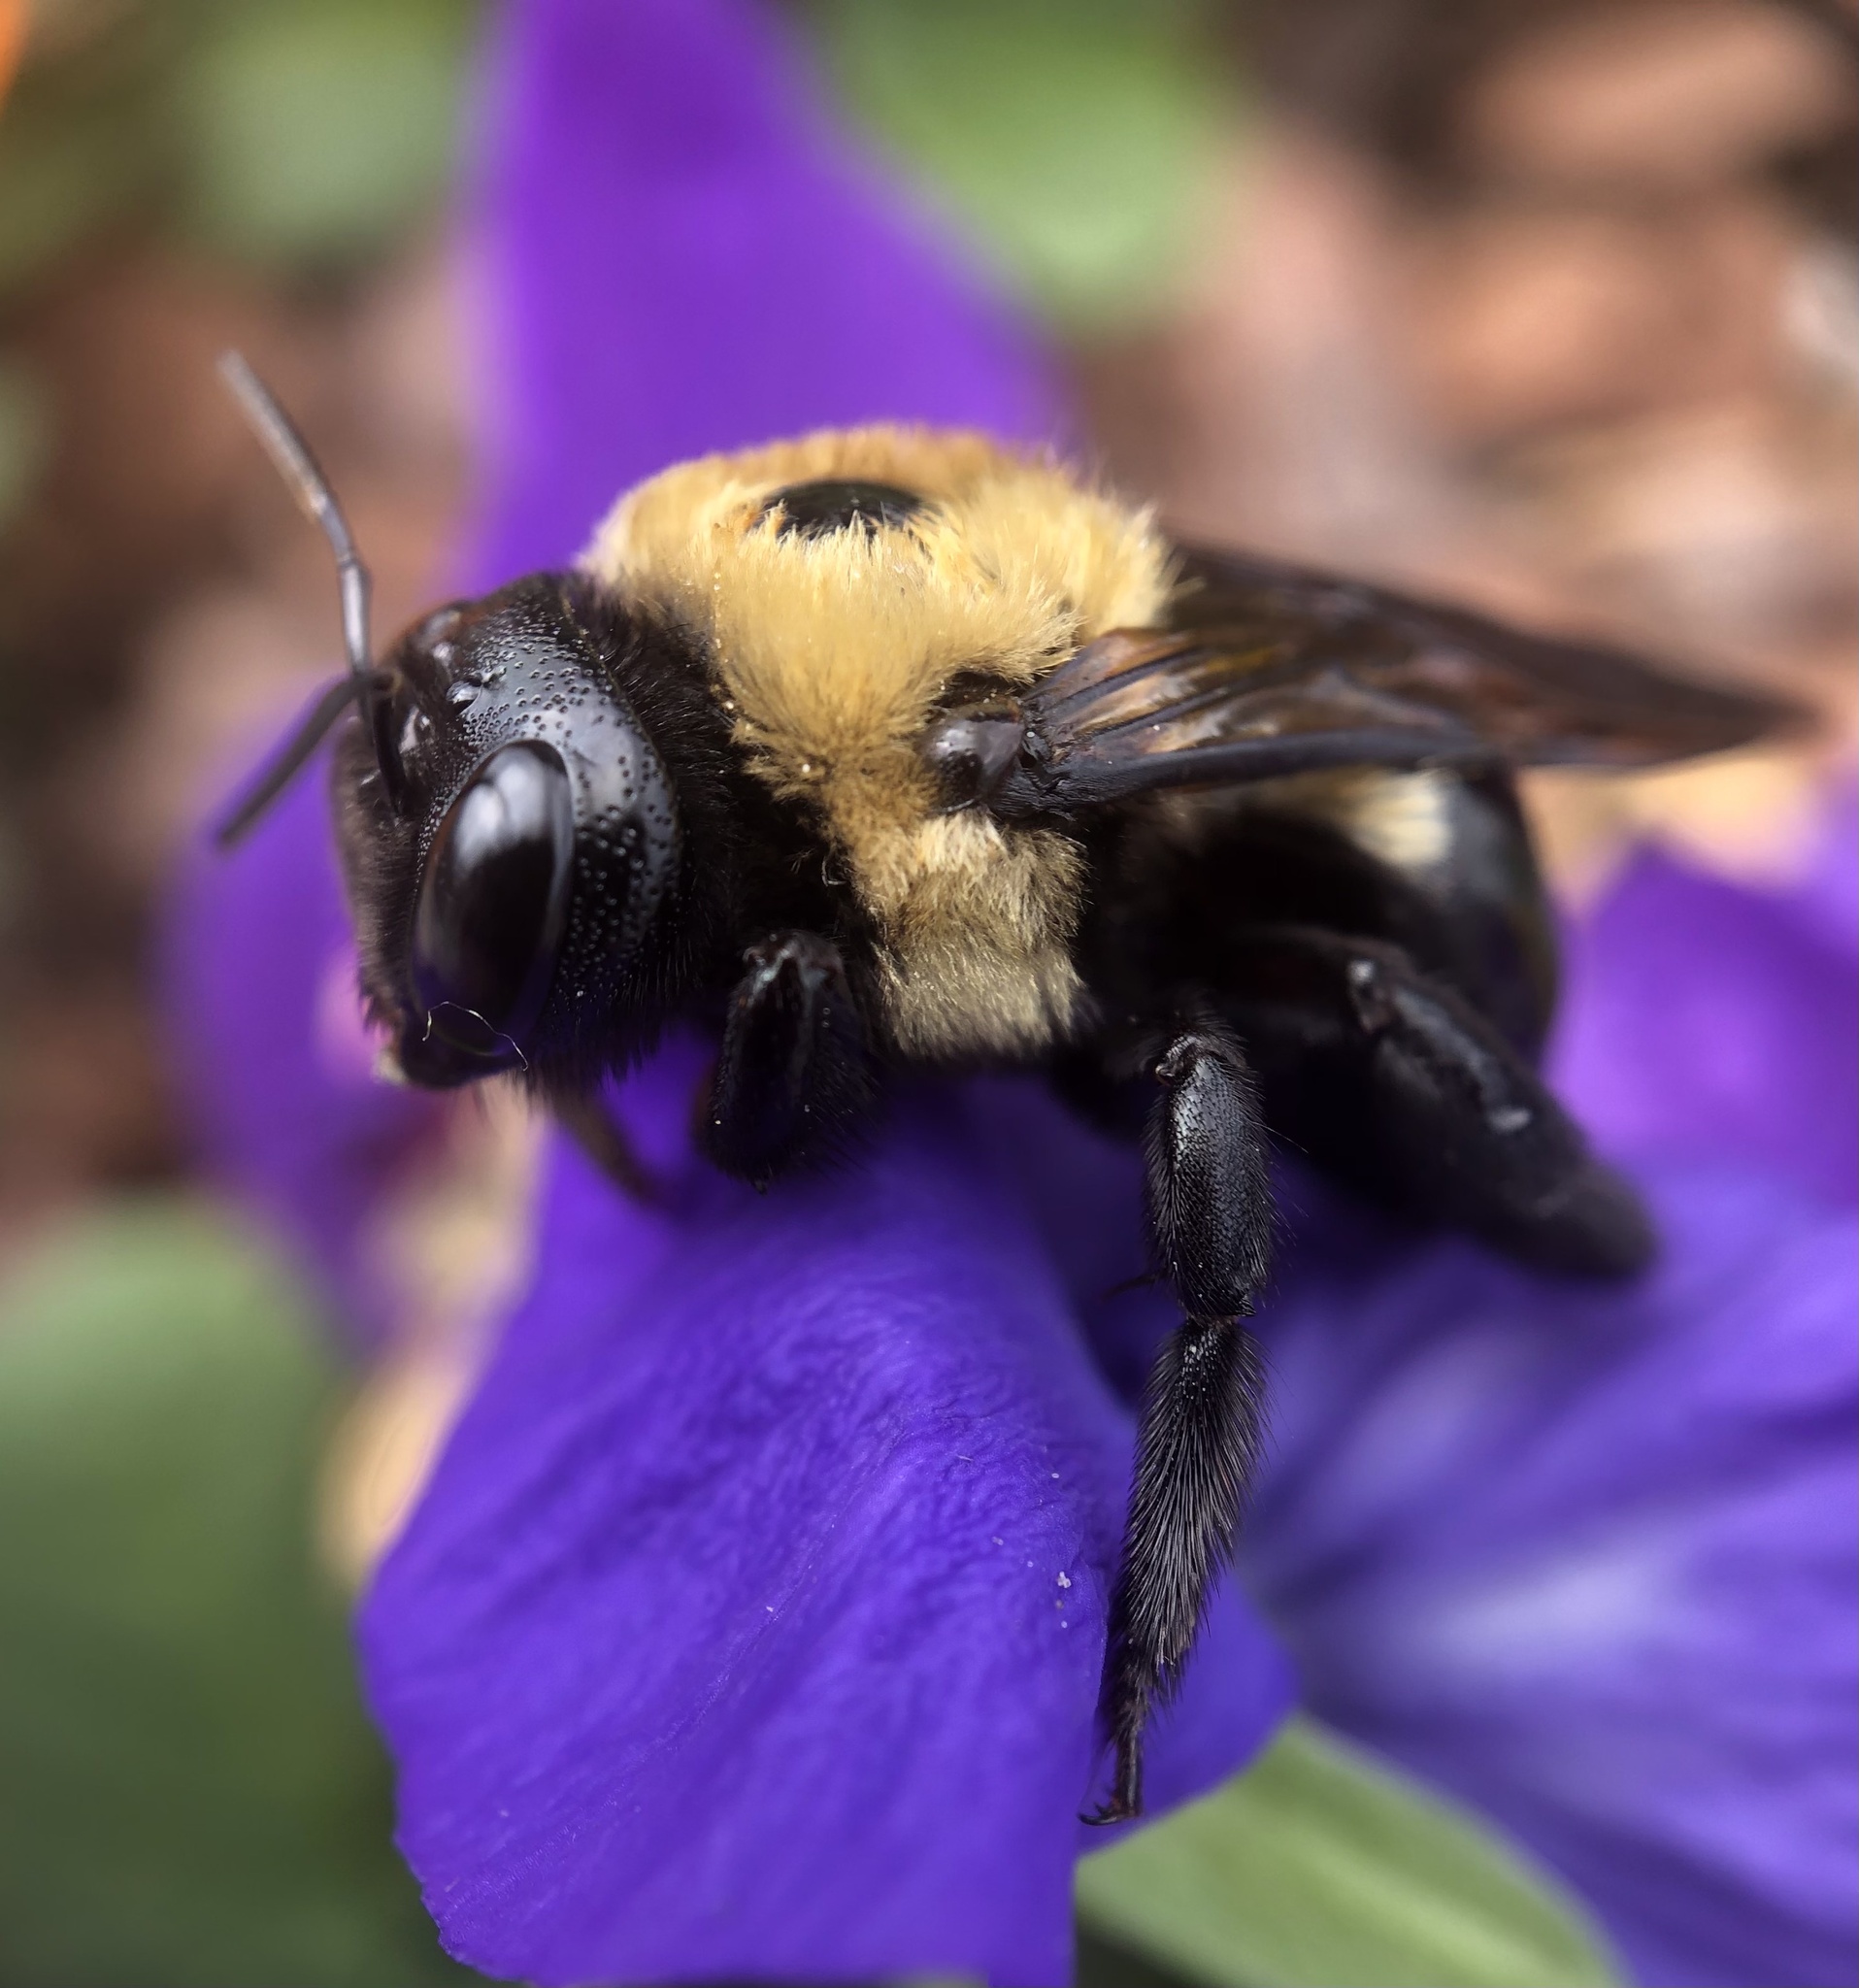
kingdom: Animalia
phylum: Arthropoda
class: Insecta
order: Hymenoptera
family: Apidae
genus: Xylocopa
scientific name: Xylocopa virginica
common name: Carpenter bee
